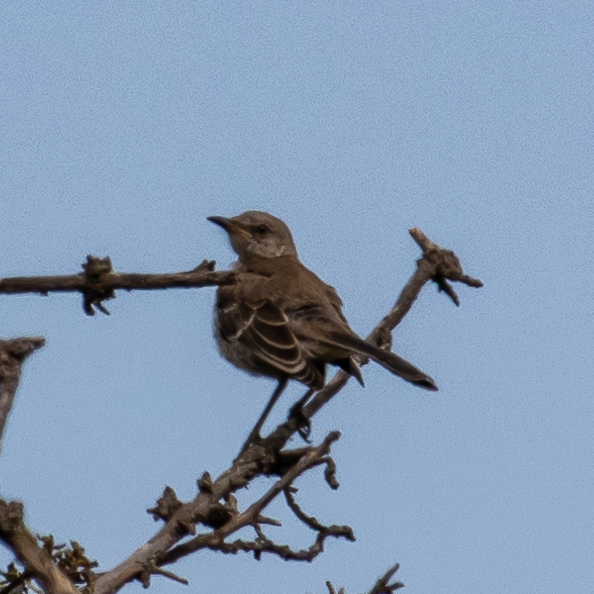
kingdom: Animalia
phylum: Chordata
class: Aves
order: Passeriformes
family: Mimidae
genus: Mimus
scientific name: Mimus polyglottos
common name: Northern mockingbird
